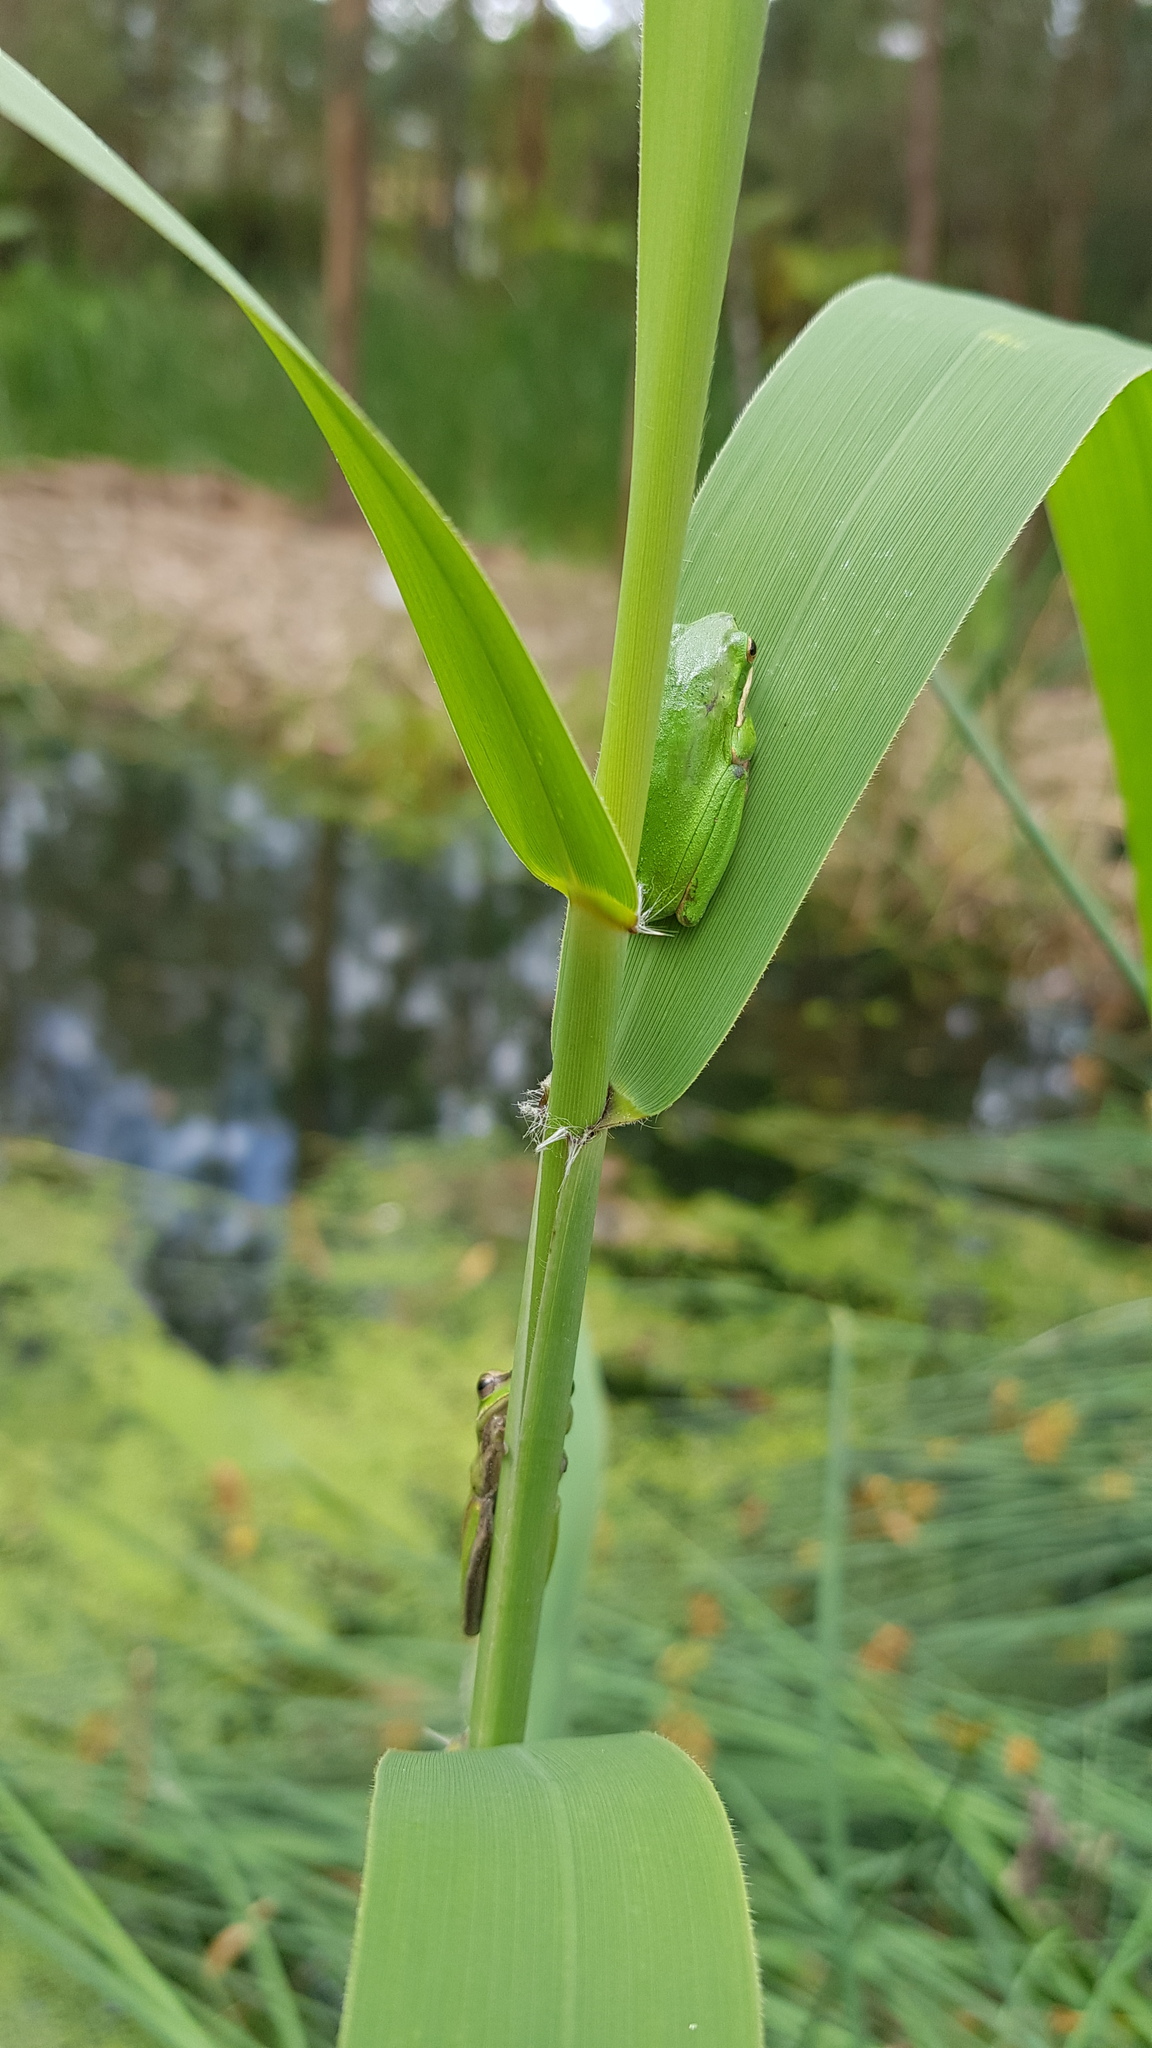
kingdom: Animalia
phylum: Chordata
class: Amphibia
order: Anura
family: Pelodryadidae
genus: Litoria
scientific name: Litoria fallax
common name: Eastern dwarf treefrog
